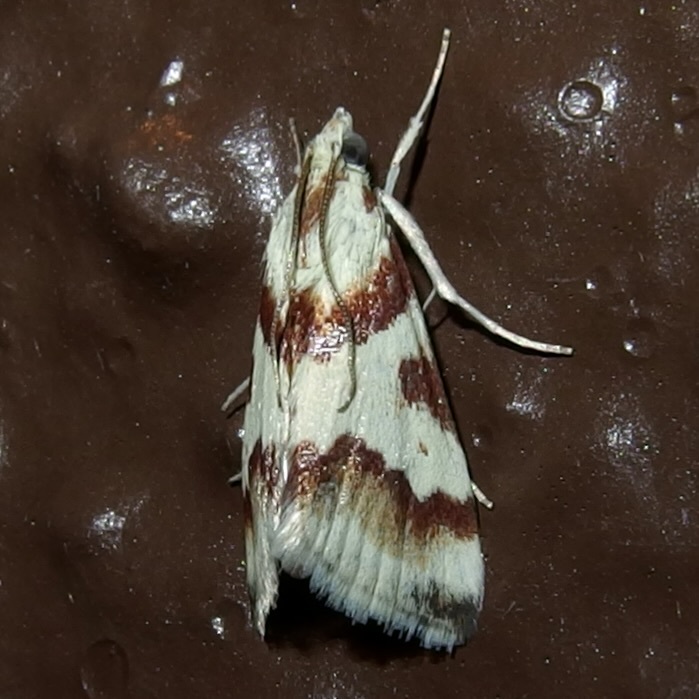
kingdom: Animalia
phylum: Arthropoda
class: Insecta
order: Lepidoptera
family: Crambidae
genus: Noctuelia
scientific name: Noctuelia Mimoschinia rufofascialis
